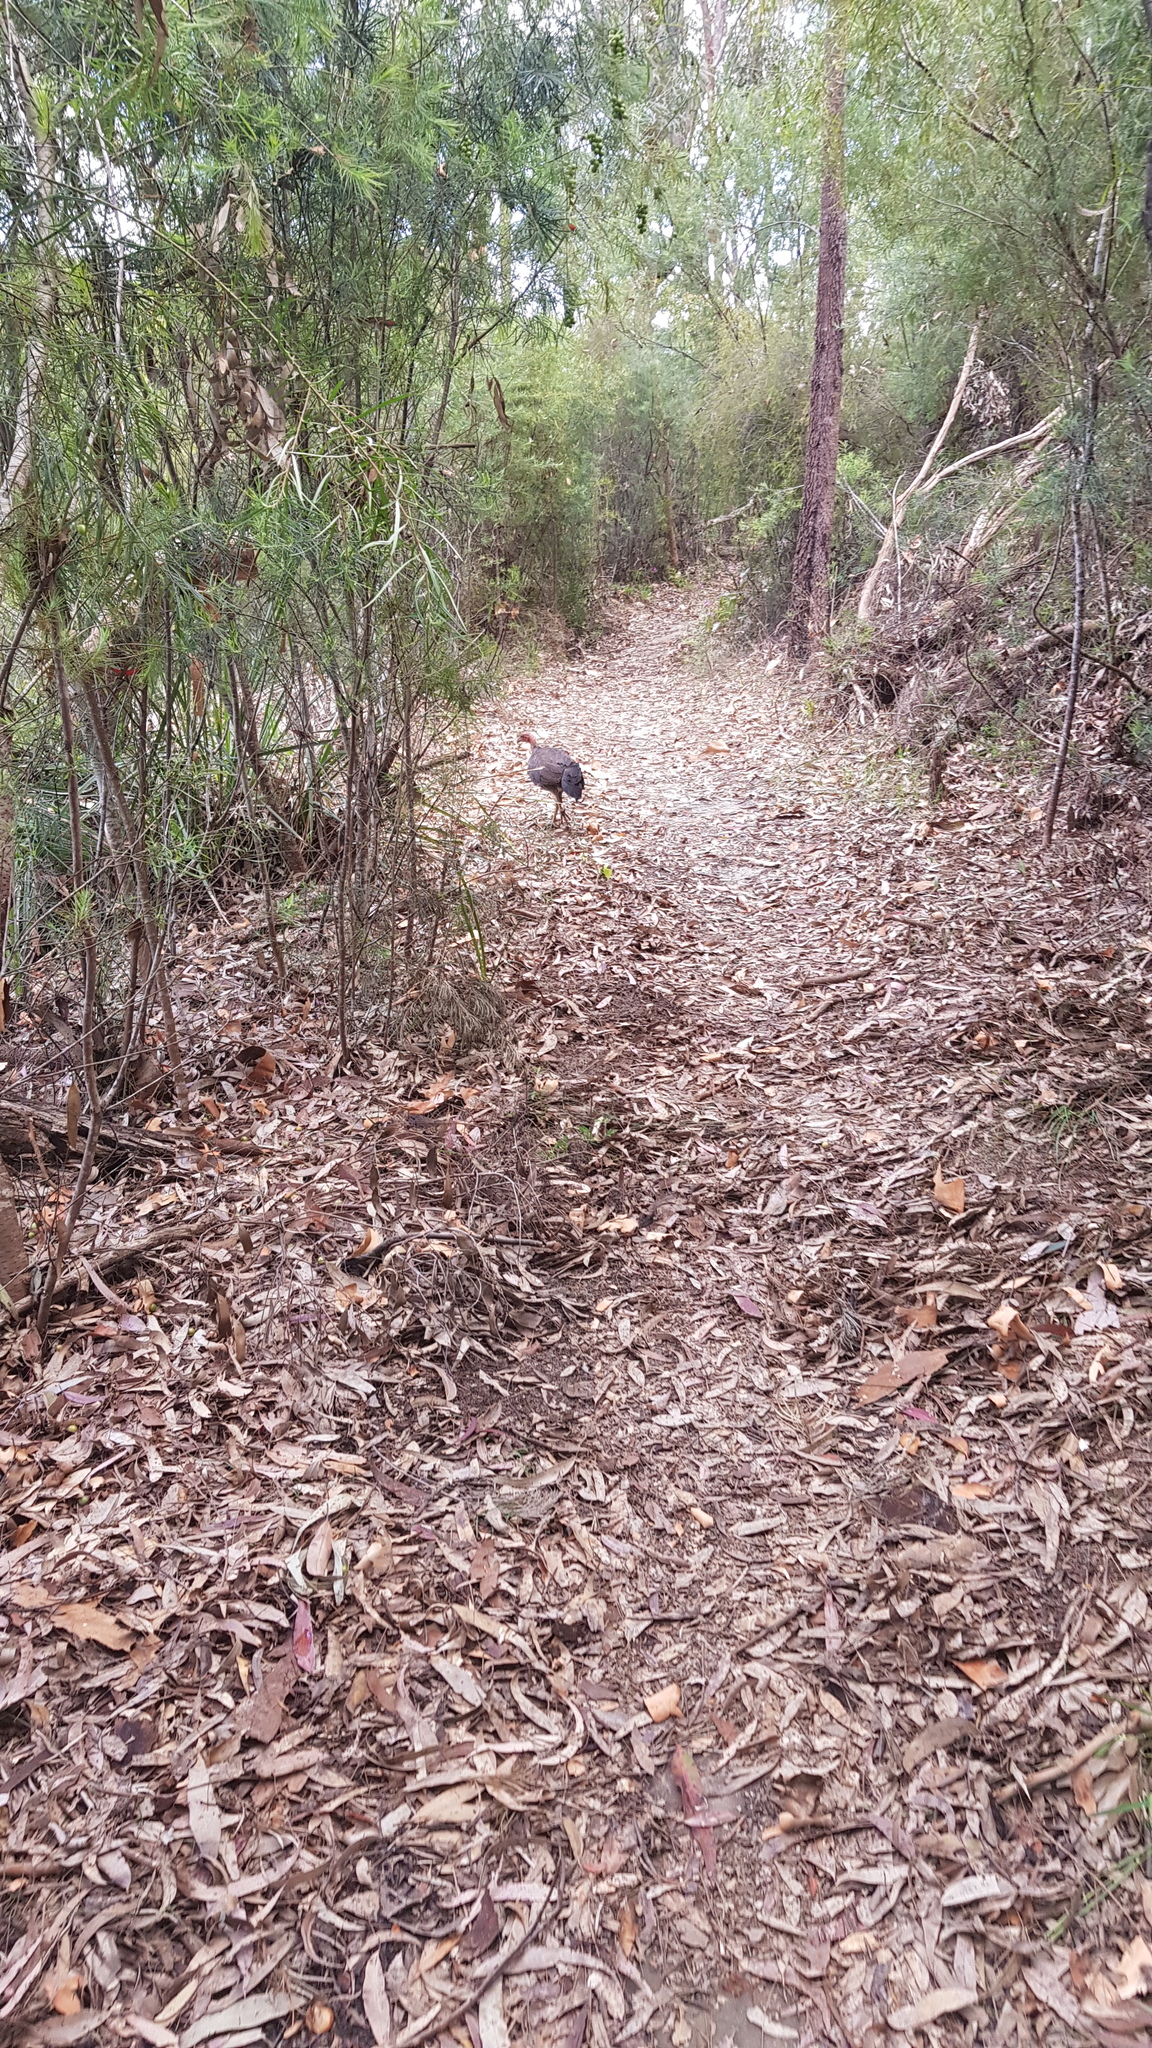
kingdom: Animalia
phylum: Chordata
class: Aves
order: Galliformes
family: Megapodiidae
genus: Alectura
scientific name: Alectura lathami
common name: Australian brushturkey
